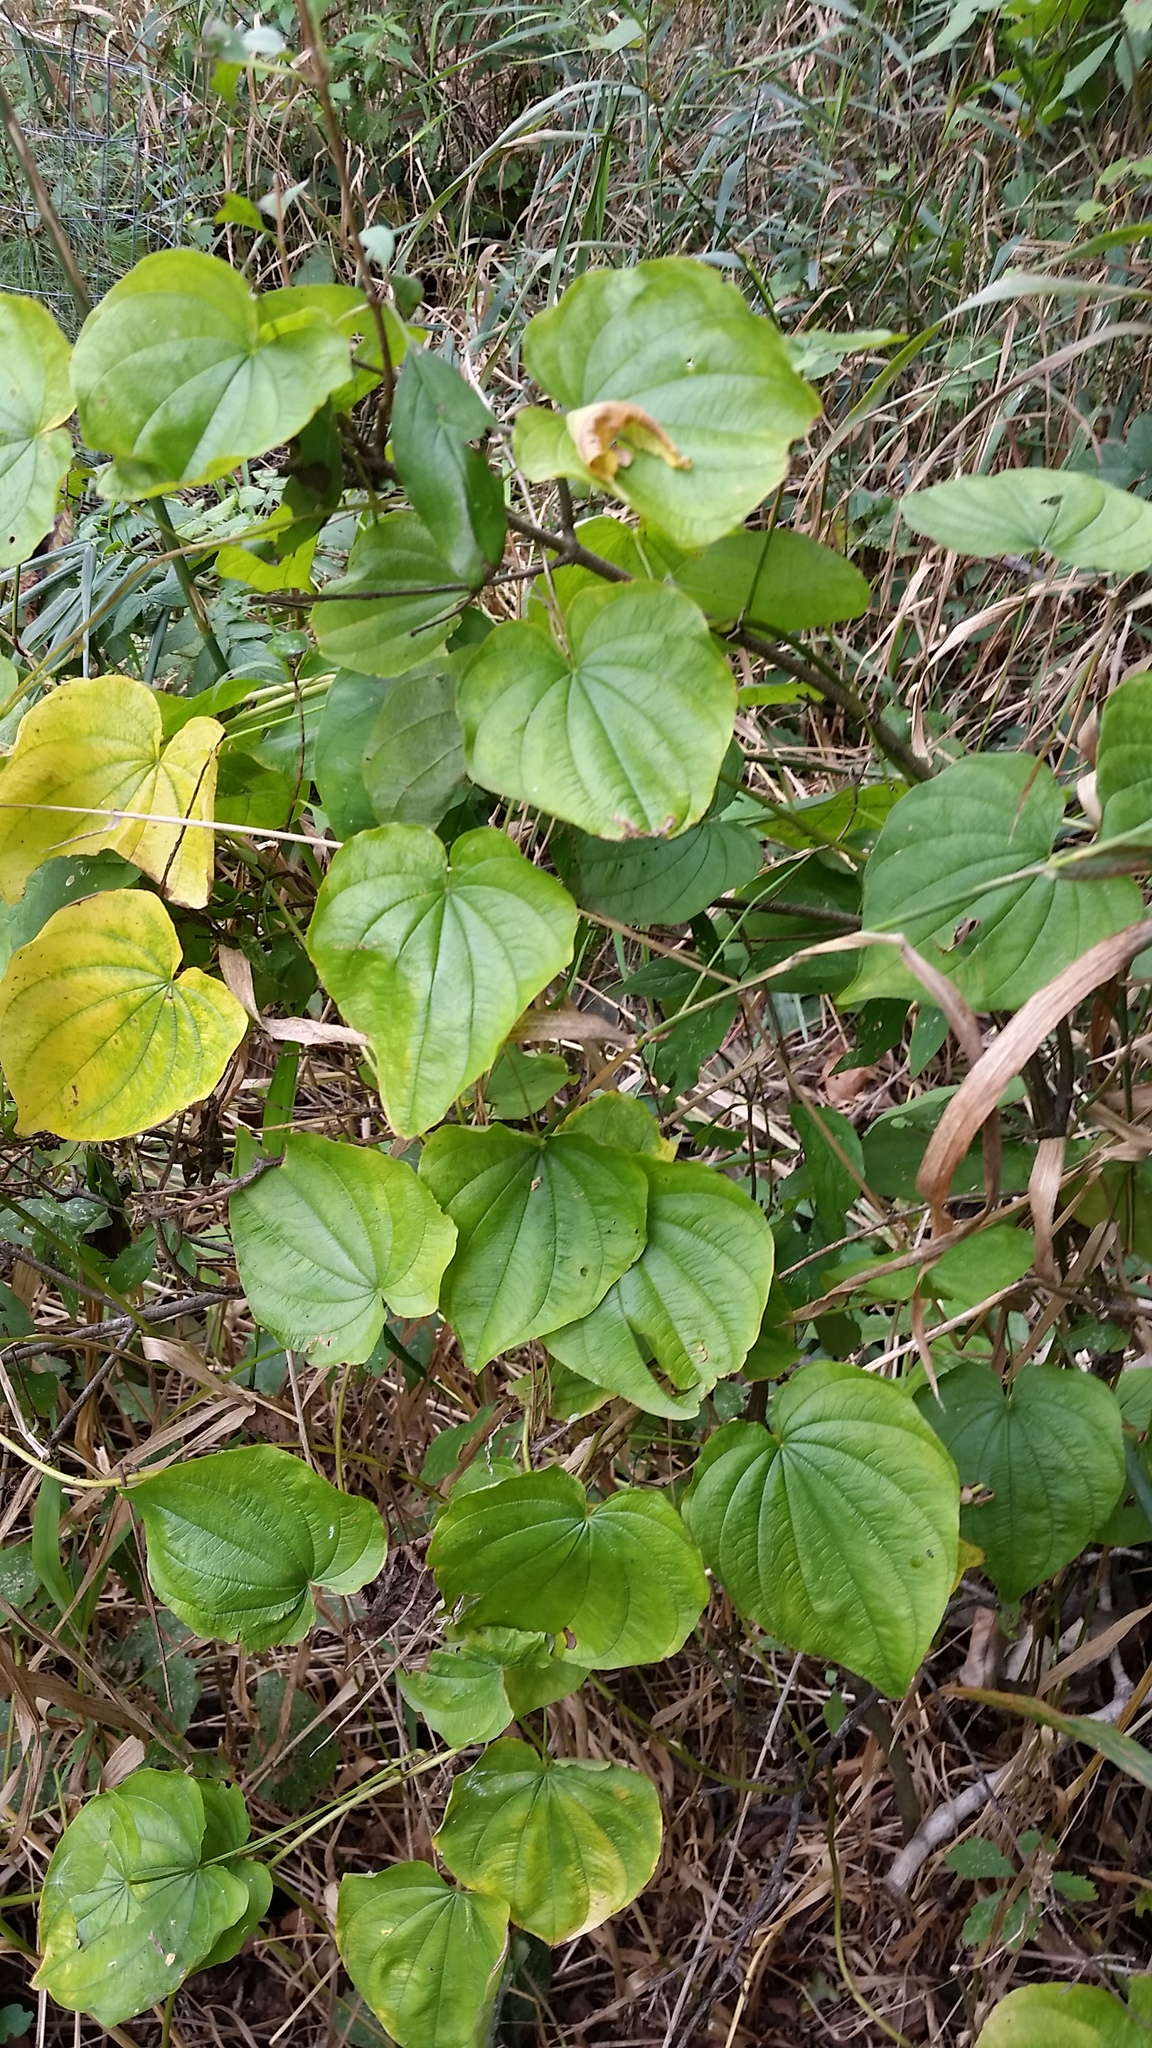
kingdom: Plantae
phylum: Tracheophyta
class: Liliopsida
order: Dioscoreales
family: Dioscoreaceae
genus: Dioscorea
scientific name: Dioscorea villosa
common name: Wild yam
